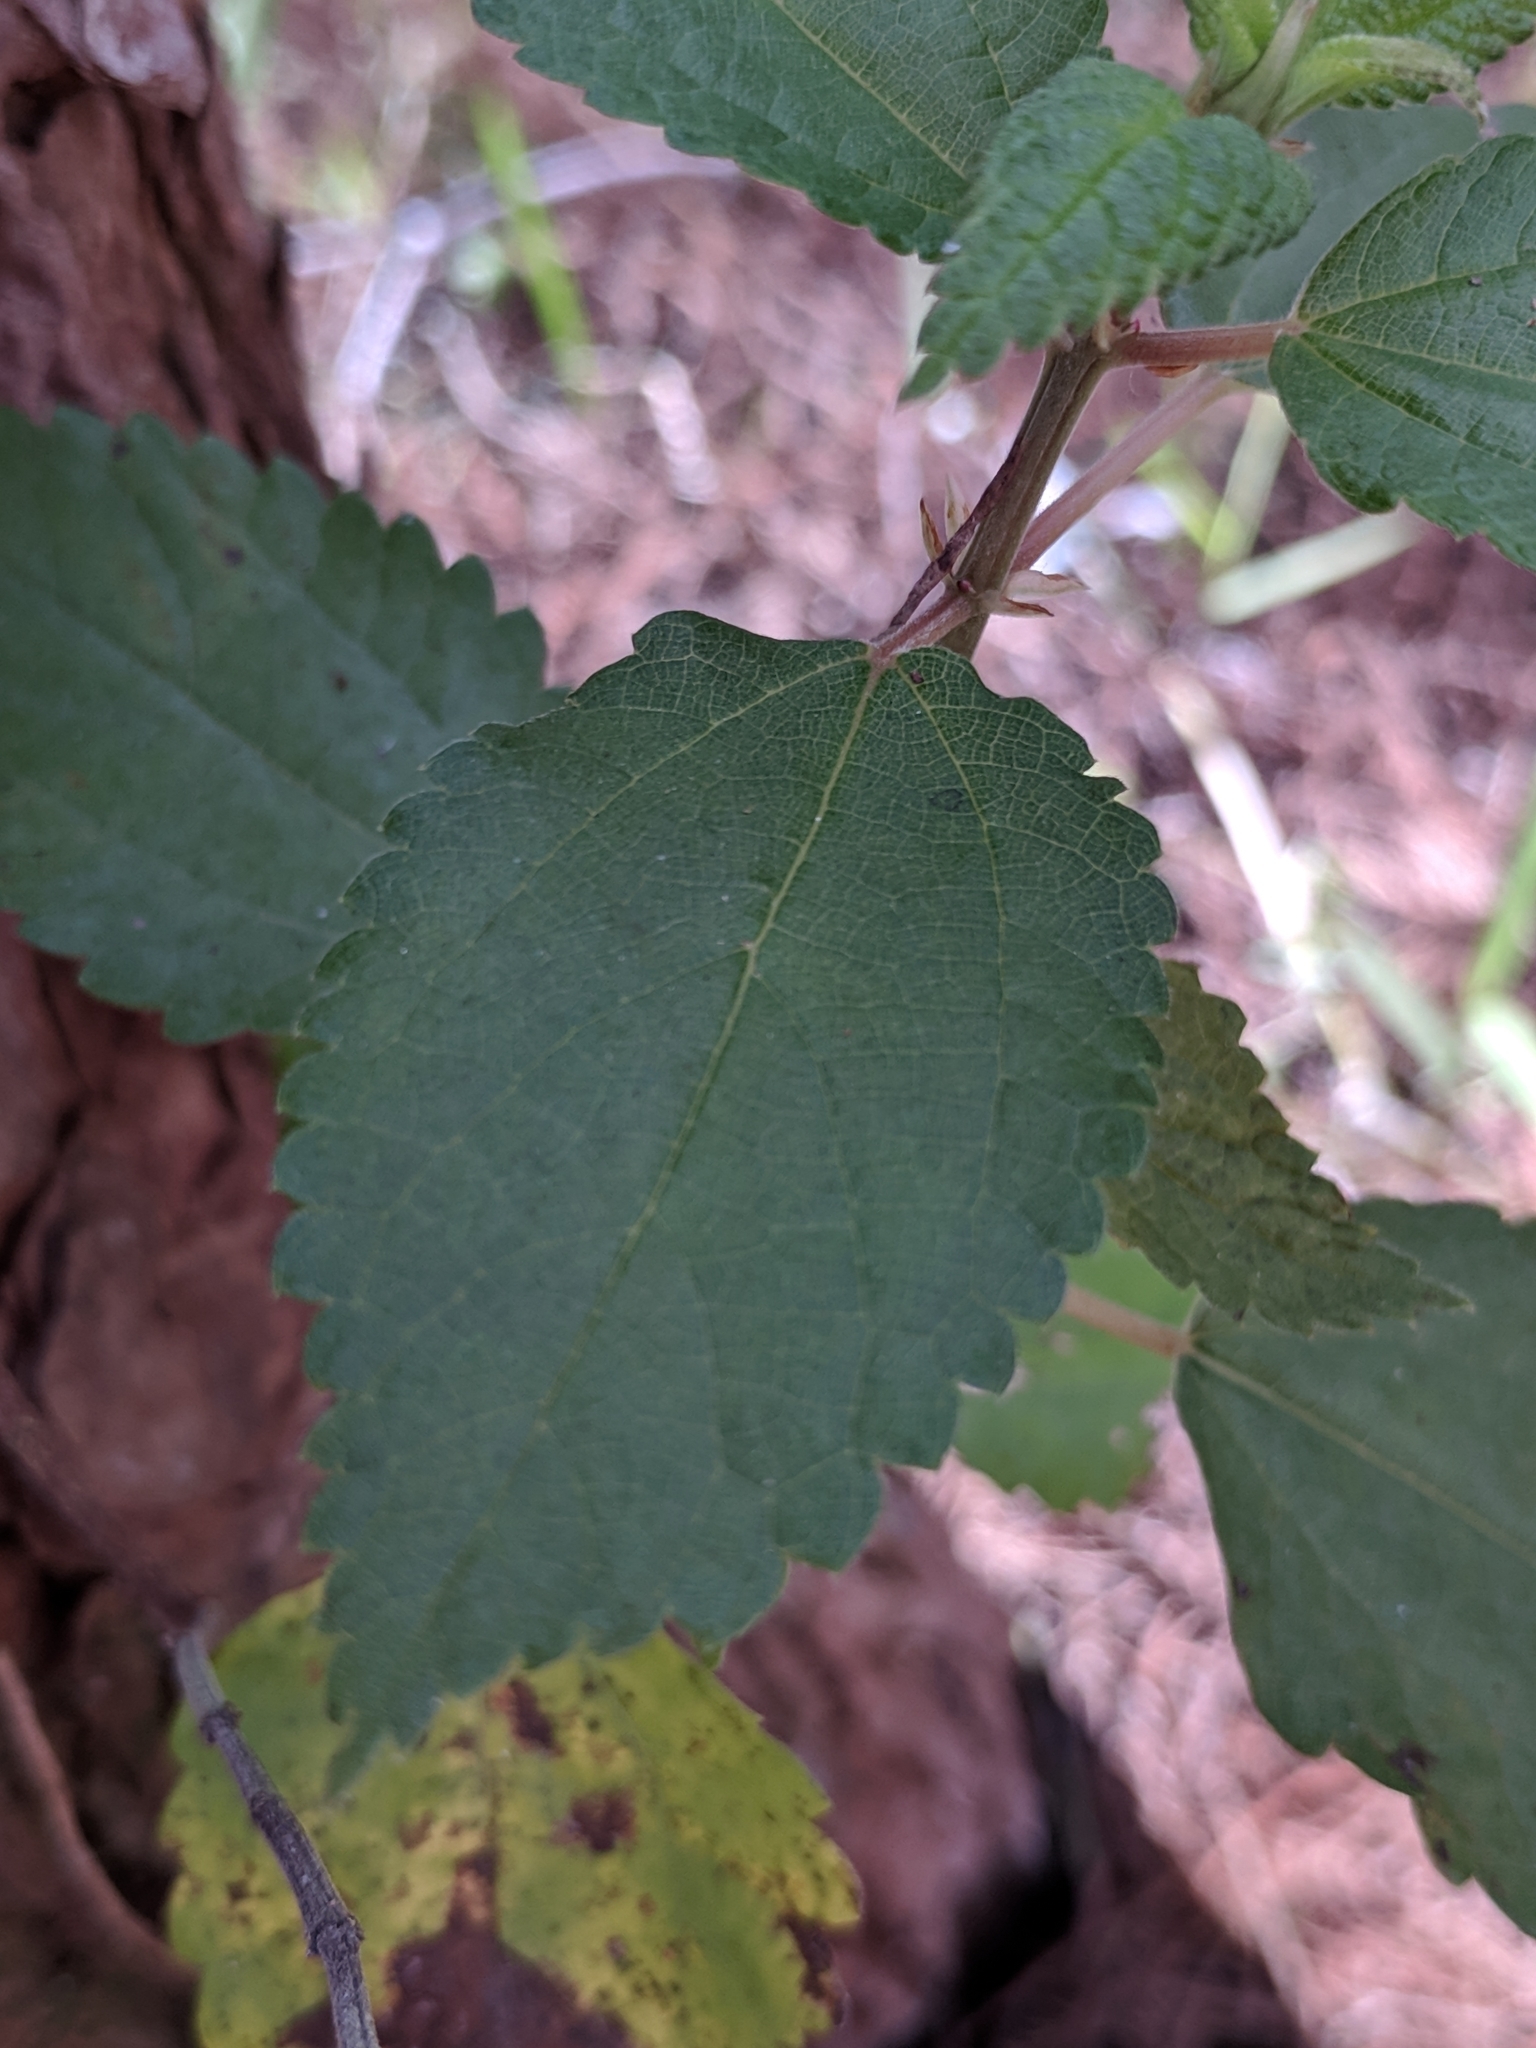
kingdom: Plantae
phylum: Tracheophyta
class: Magnoliopsida
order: Rosales
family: Urticaceae
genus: Boehmeria
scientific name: Boehmeria cylindrica
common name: Bog-hemp
